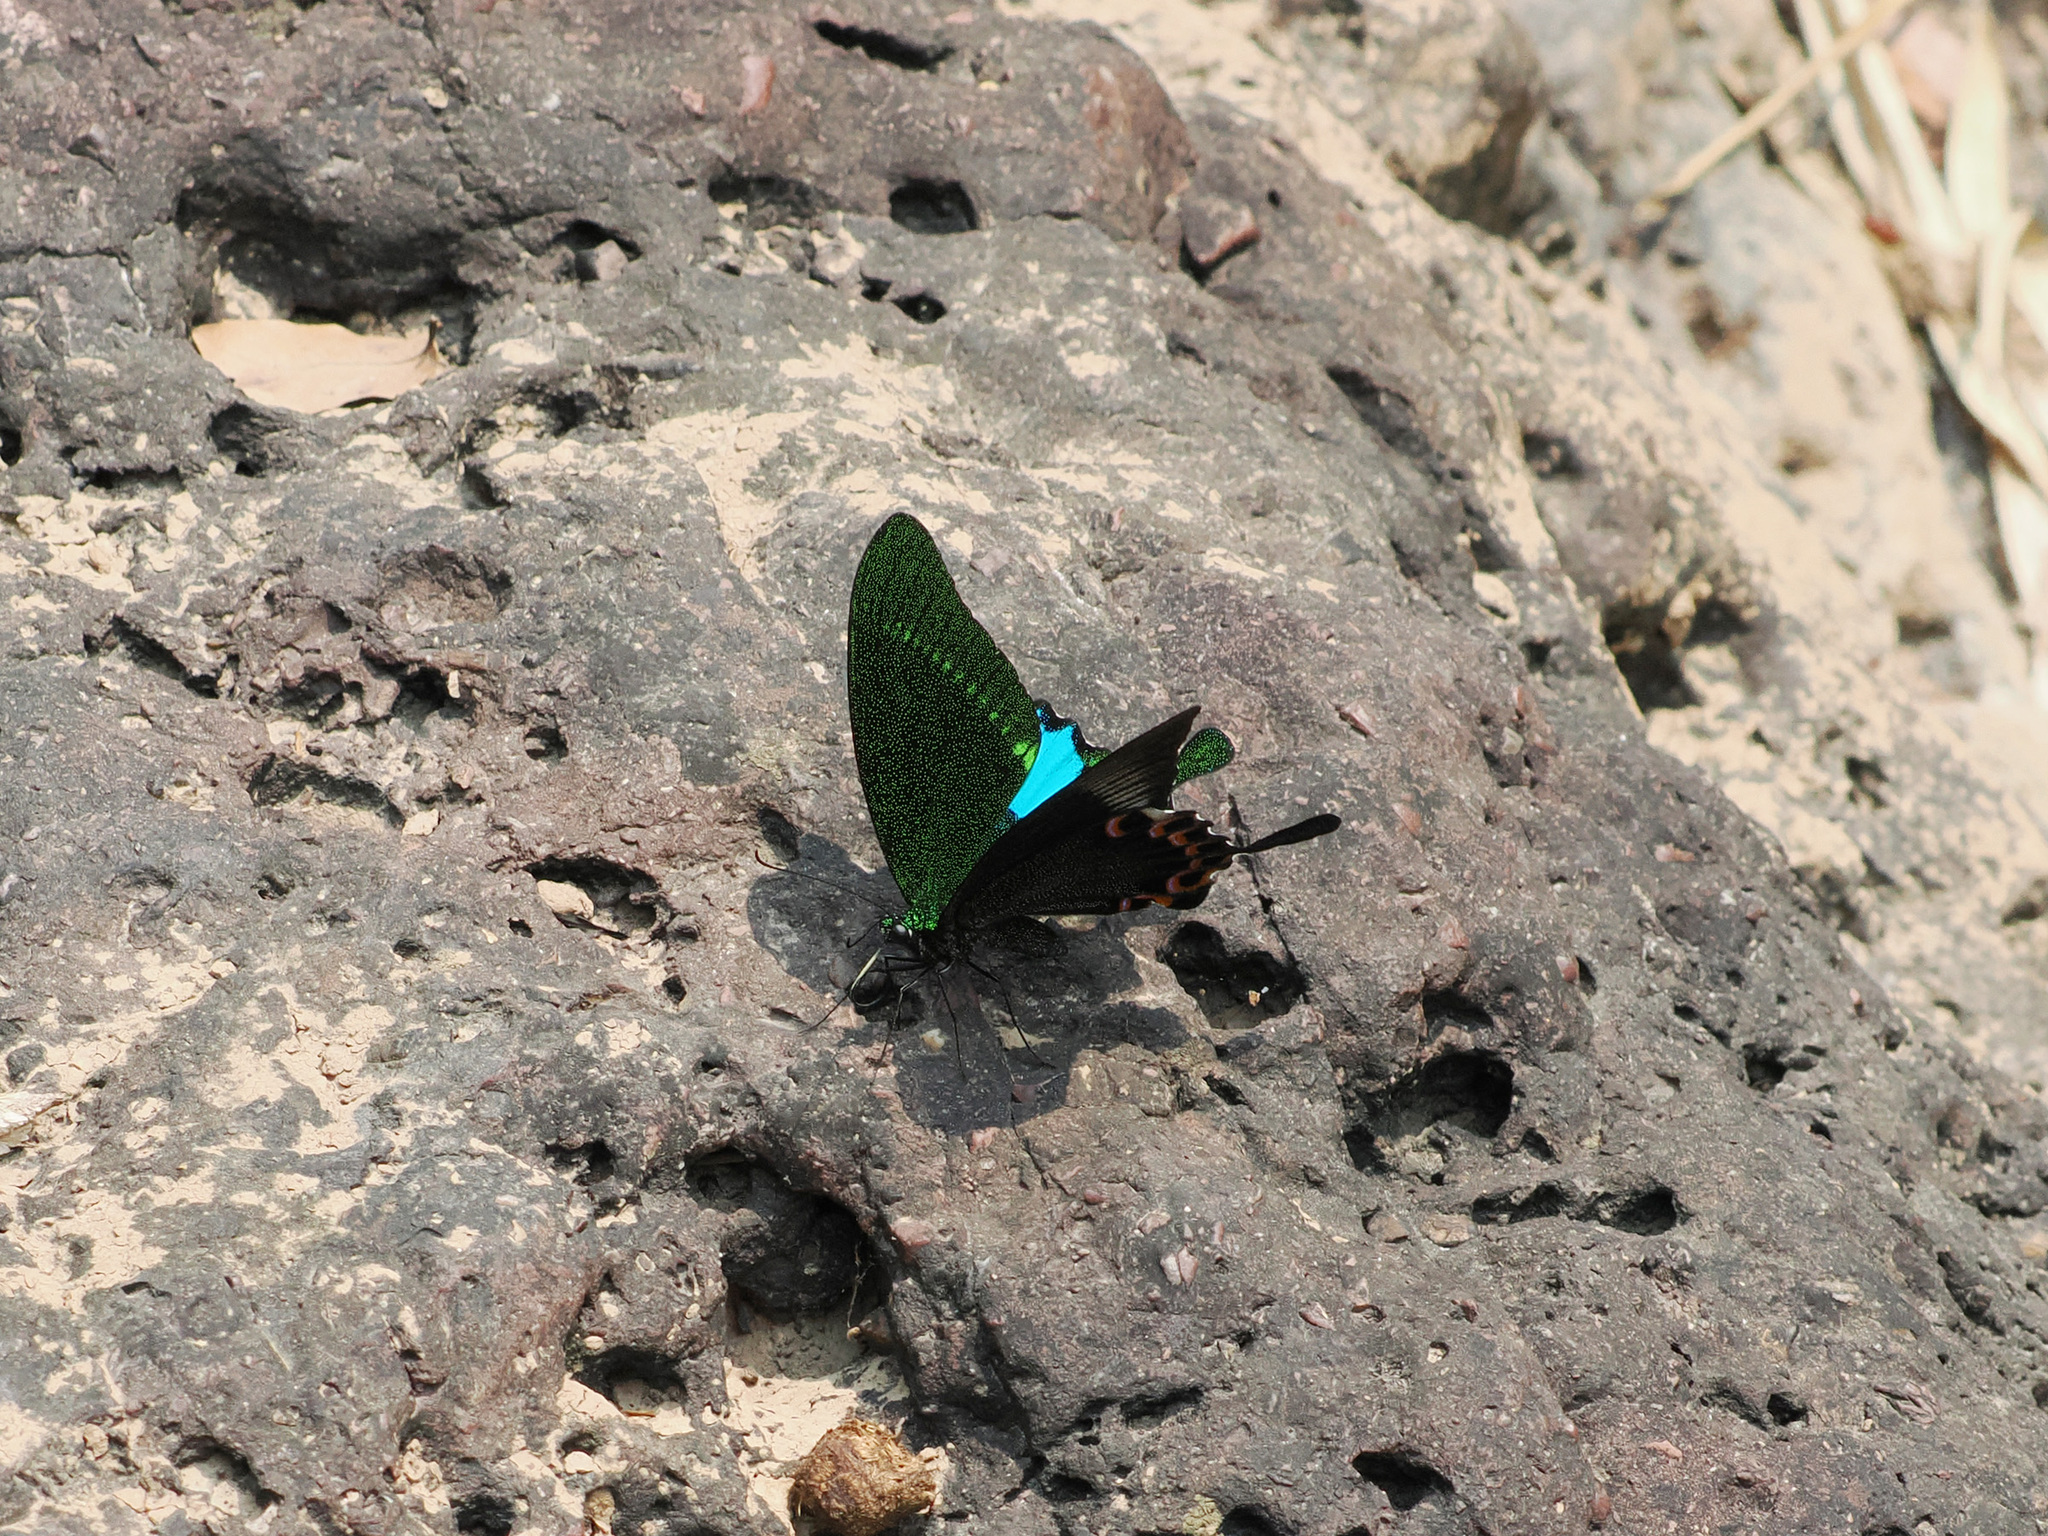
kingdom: Animalia
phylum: Arthropoda
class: Insecta
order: Lepidoptera
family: Papilionidae
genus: Papilio
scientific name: Papilio paris
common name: Paris peacock
